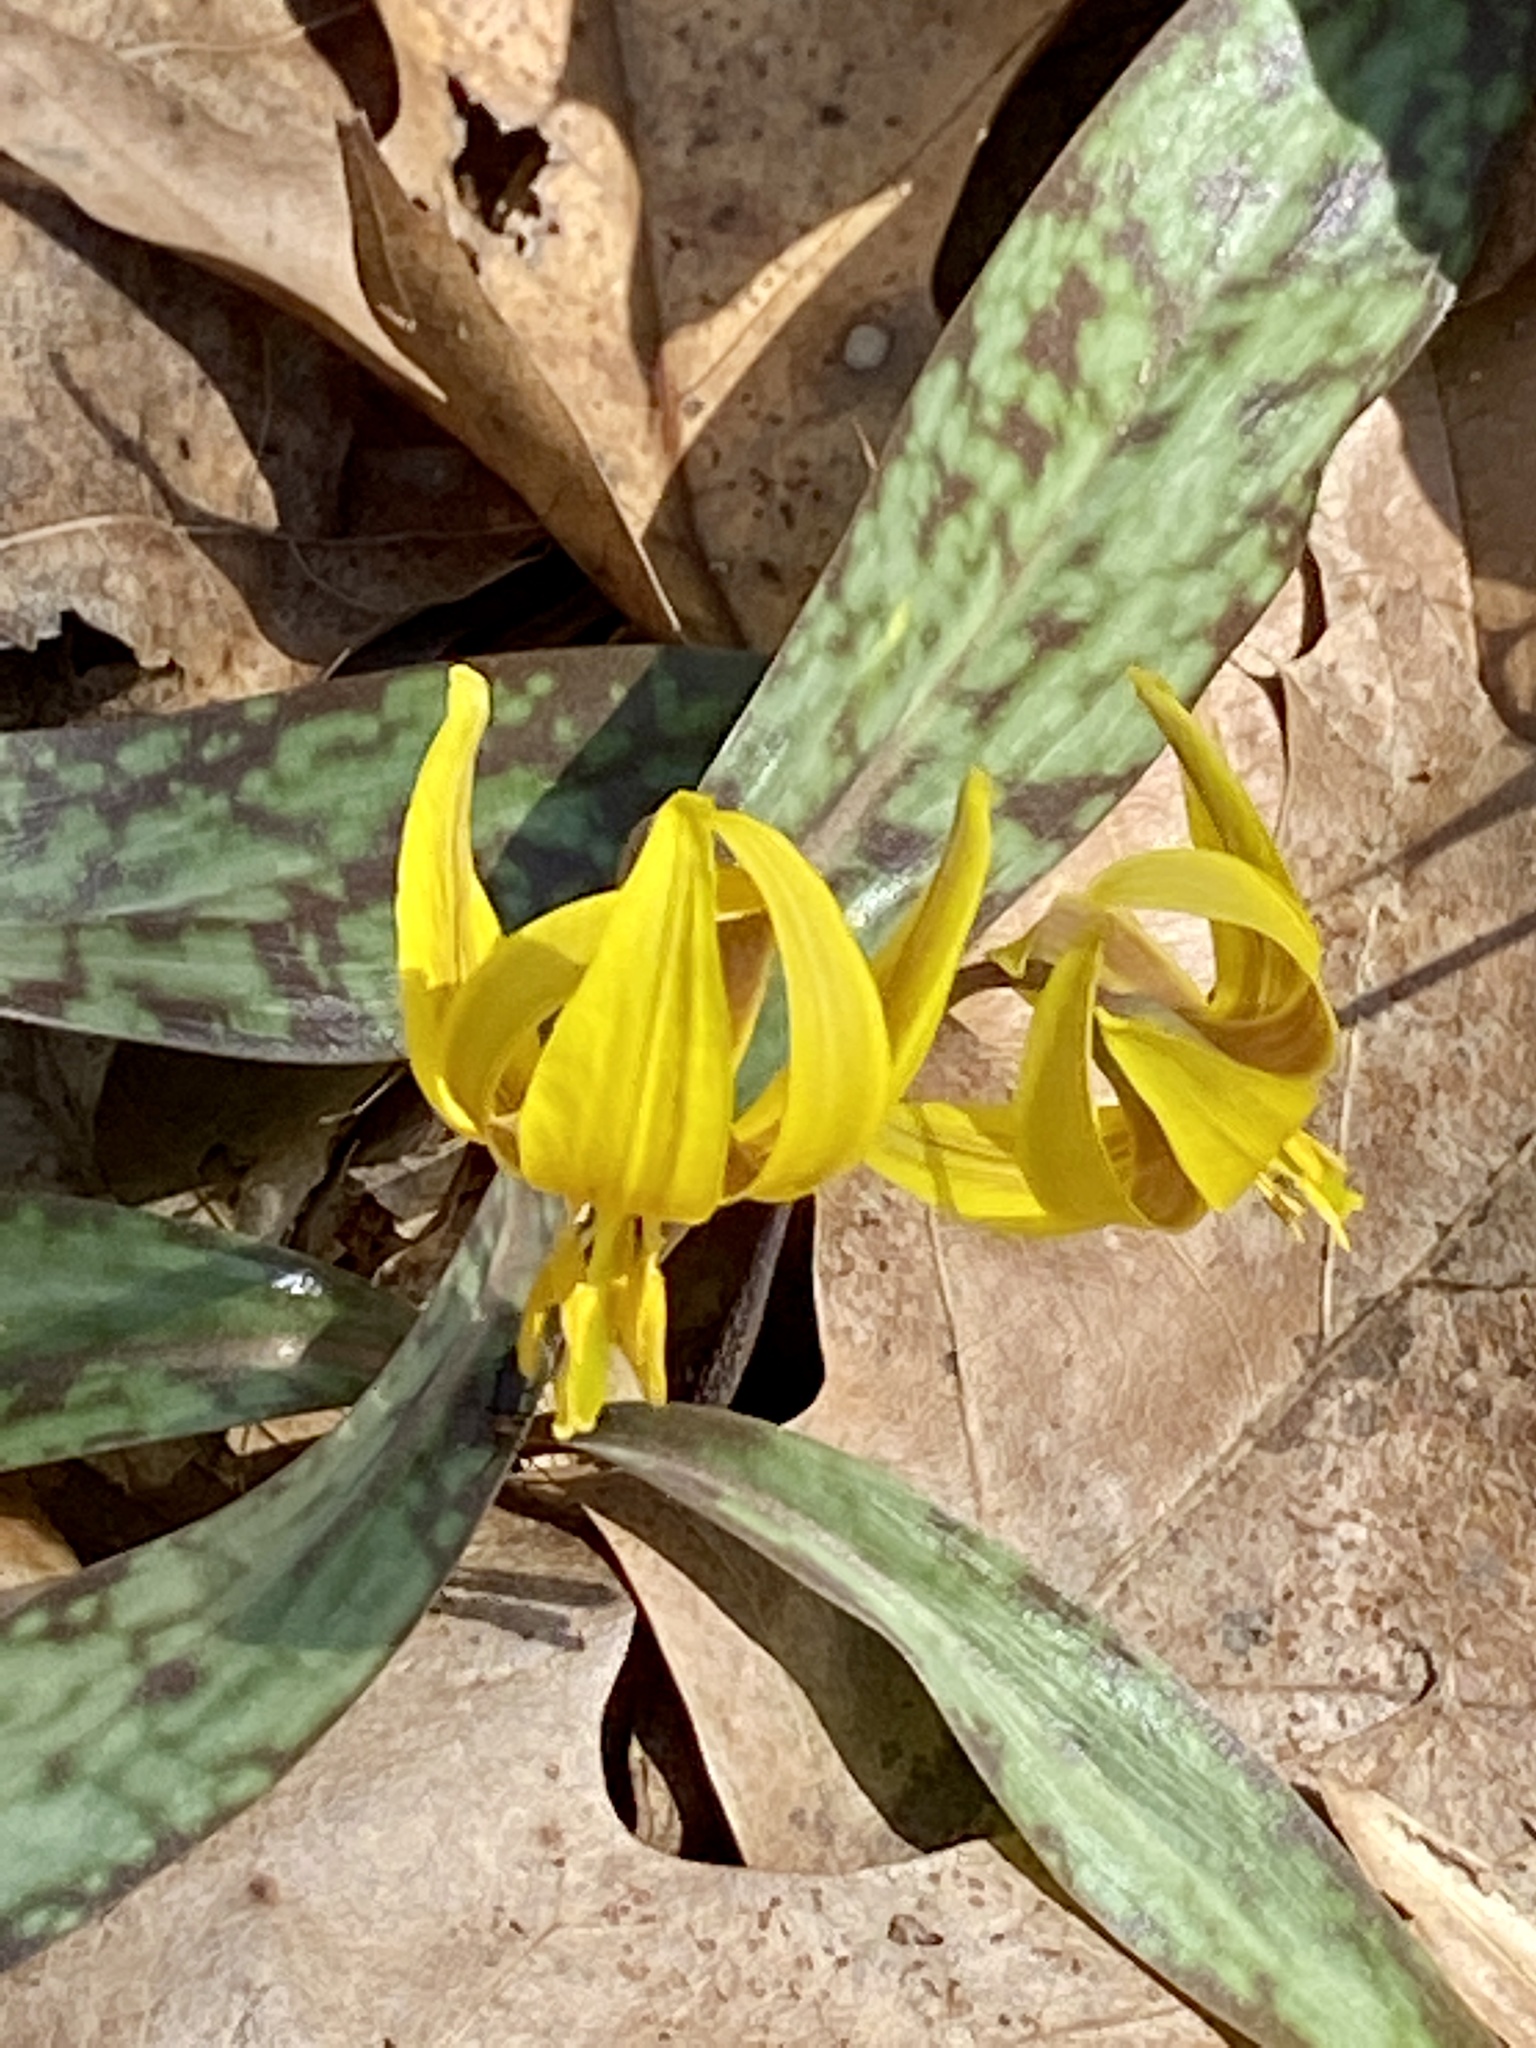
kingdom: Plantae
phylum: Tracheophyta
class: Liliopsida
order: Liliales
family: Liliaceae
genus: Erythronium
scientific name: Erythronium americanum
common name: Yellow adder's-tongue
